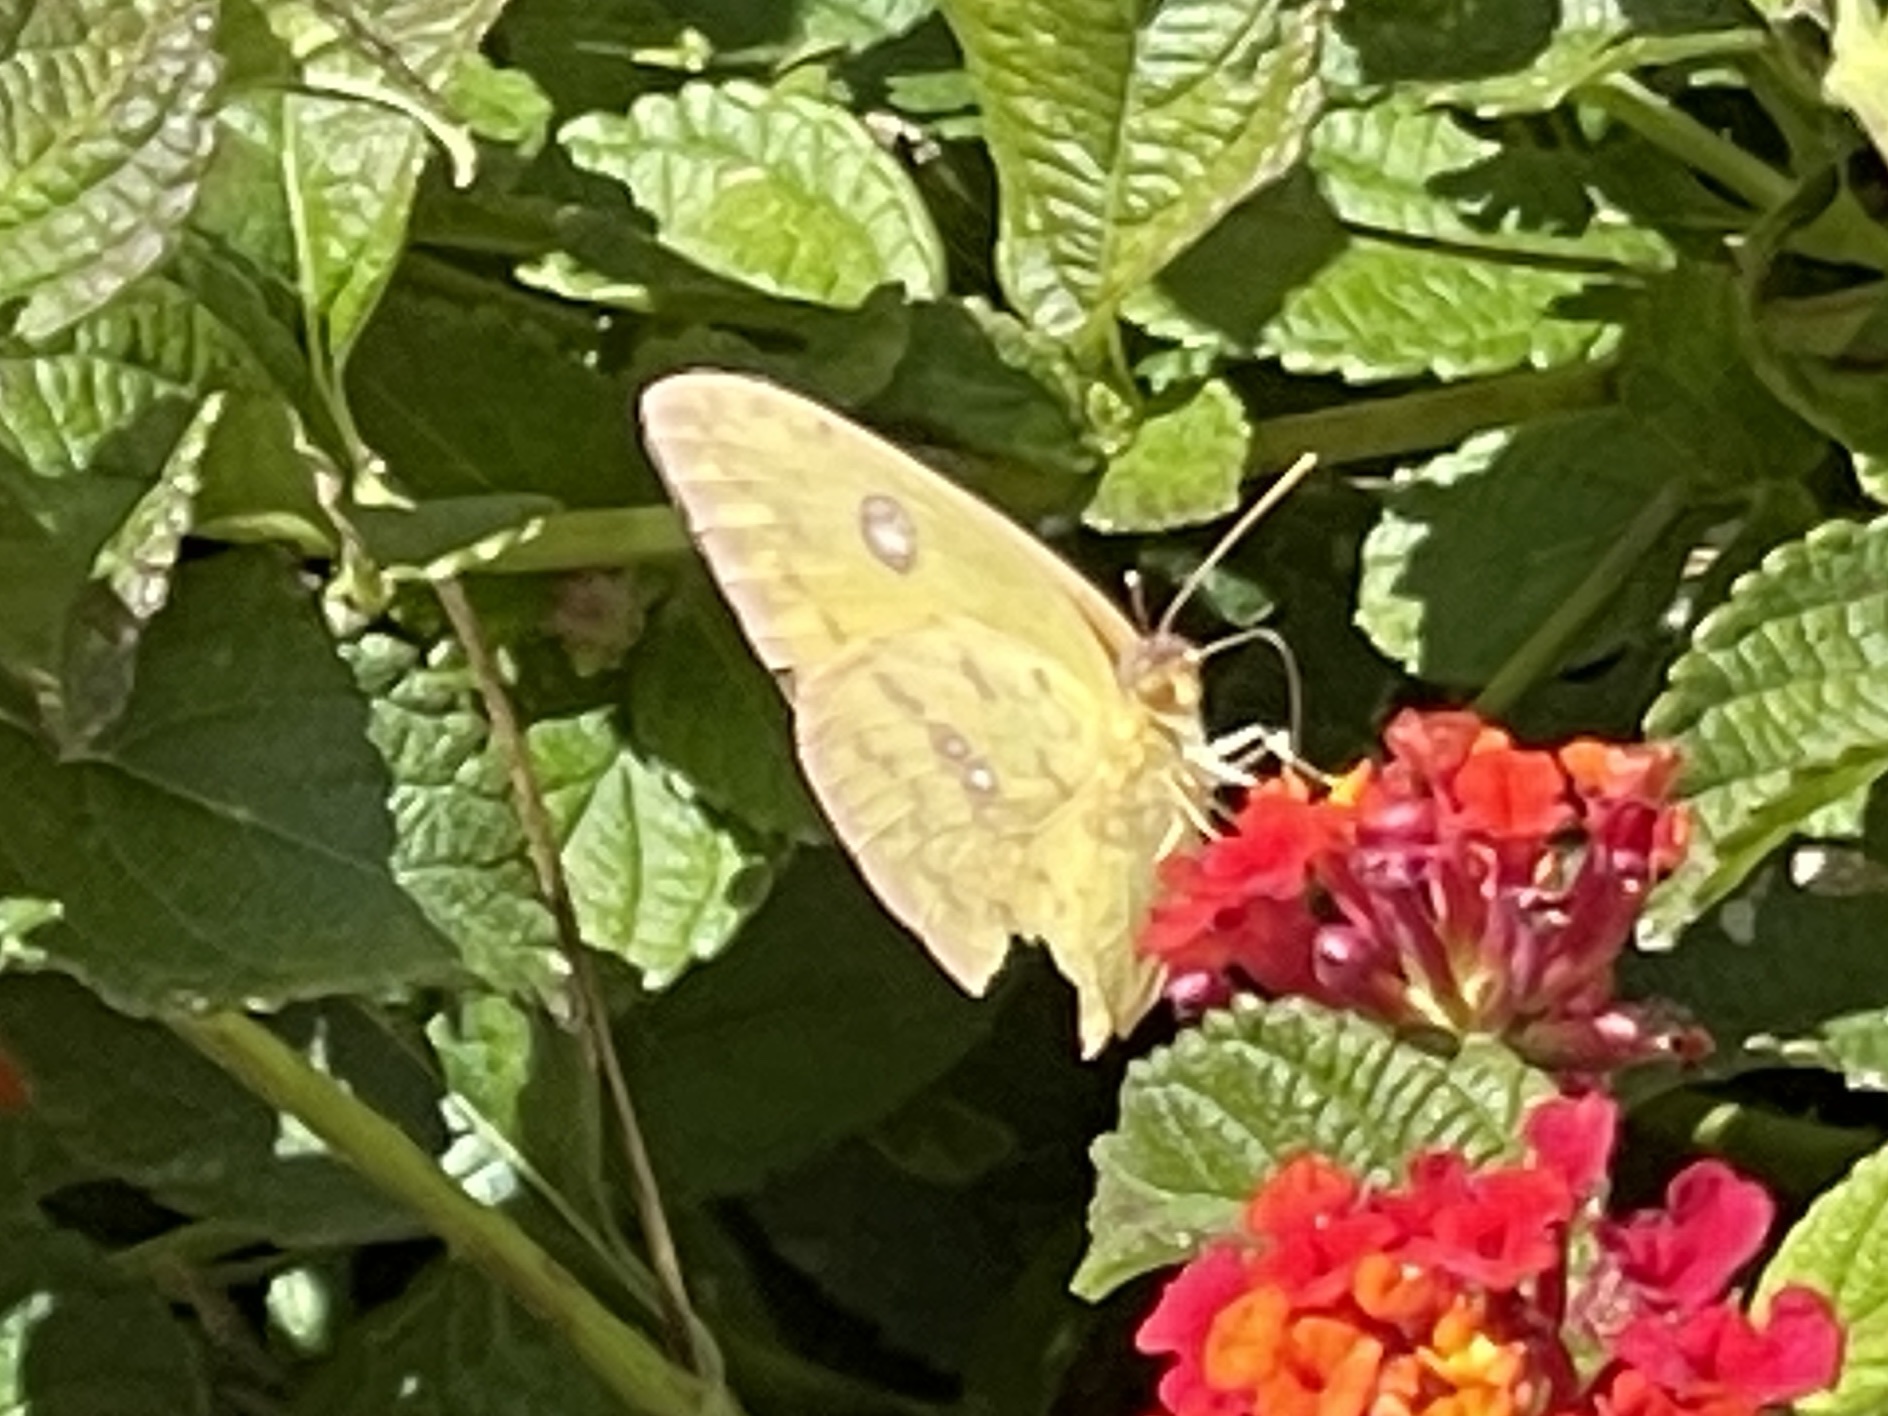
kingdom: Animalia
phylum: Arthropoda
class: Insecta
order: Lepidoptera
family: Pieridae
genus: Phoebis
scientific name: Phoebis sennae
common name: Cloudless sulphur
